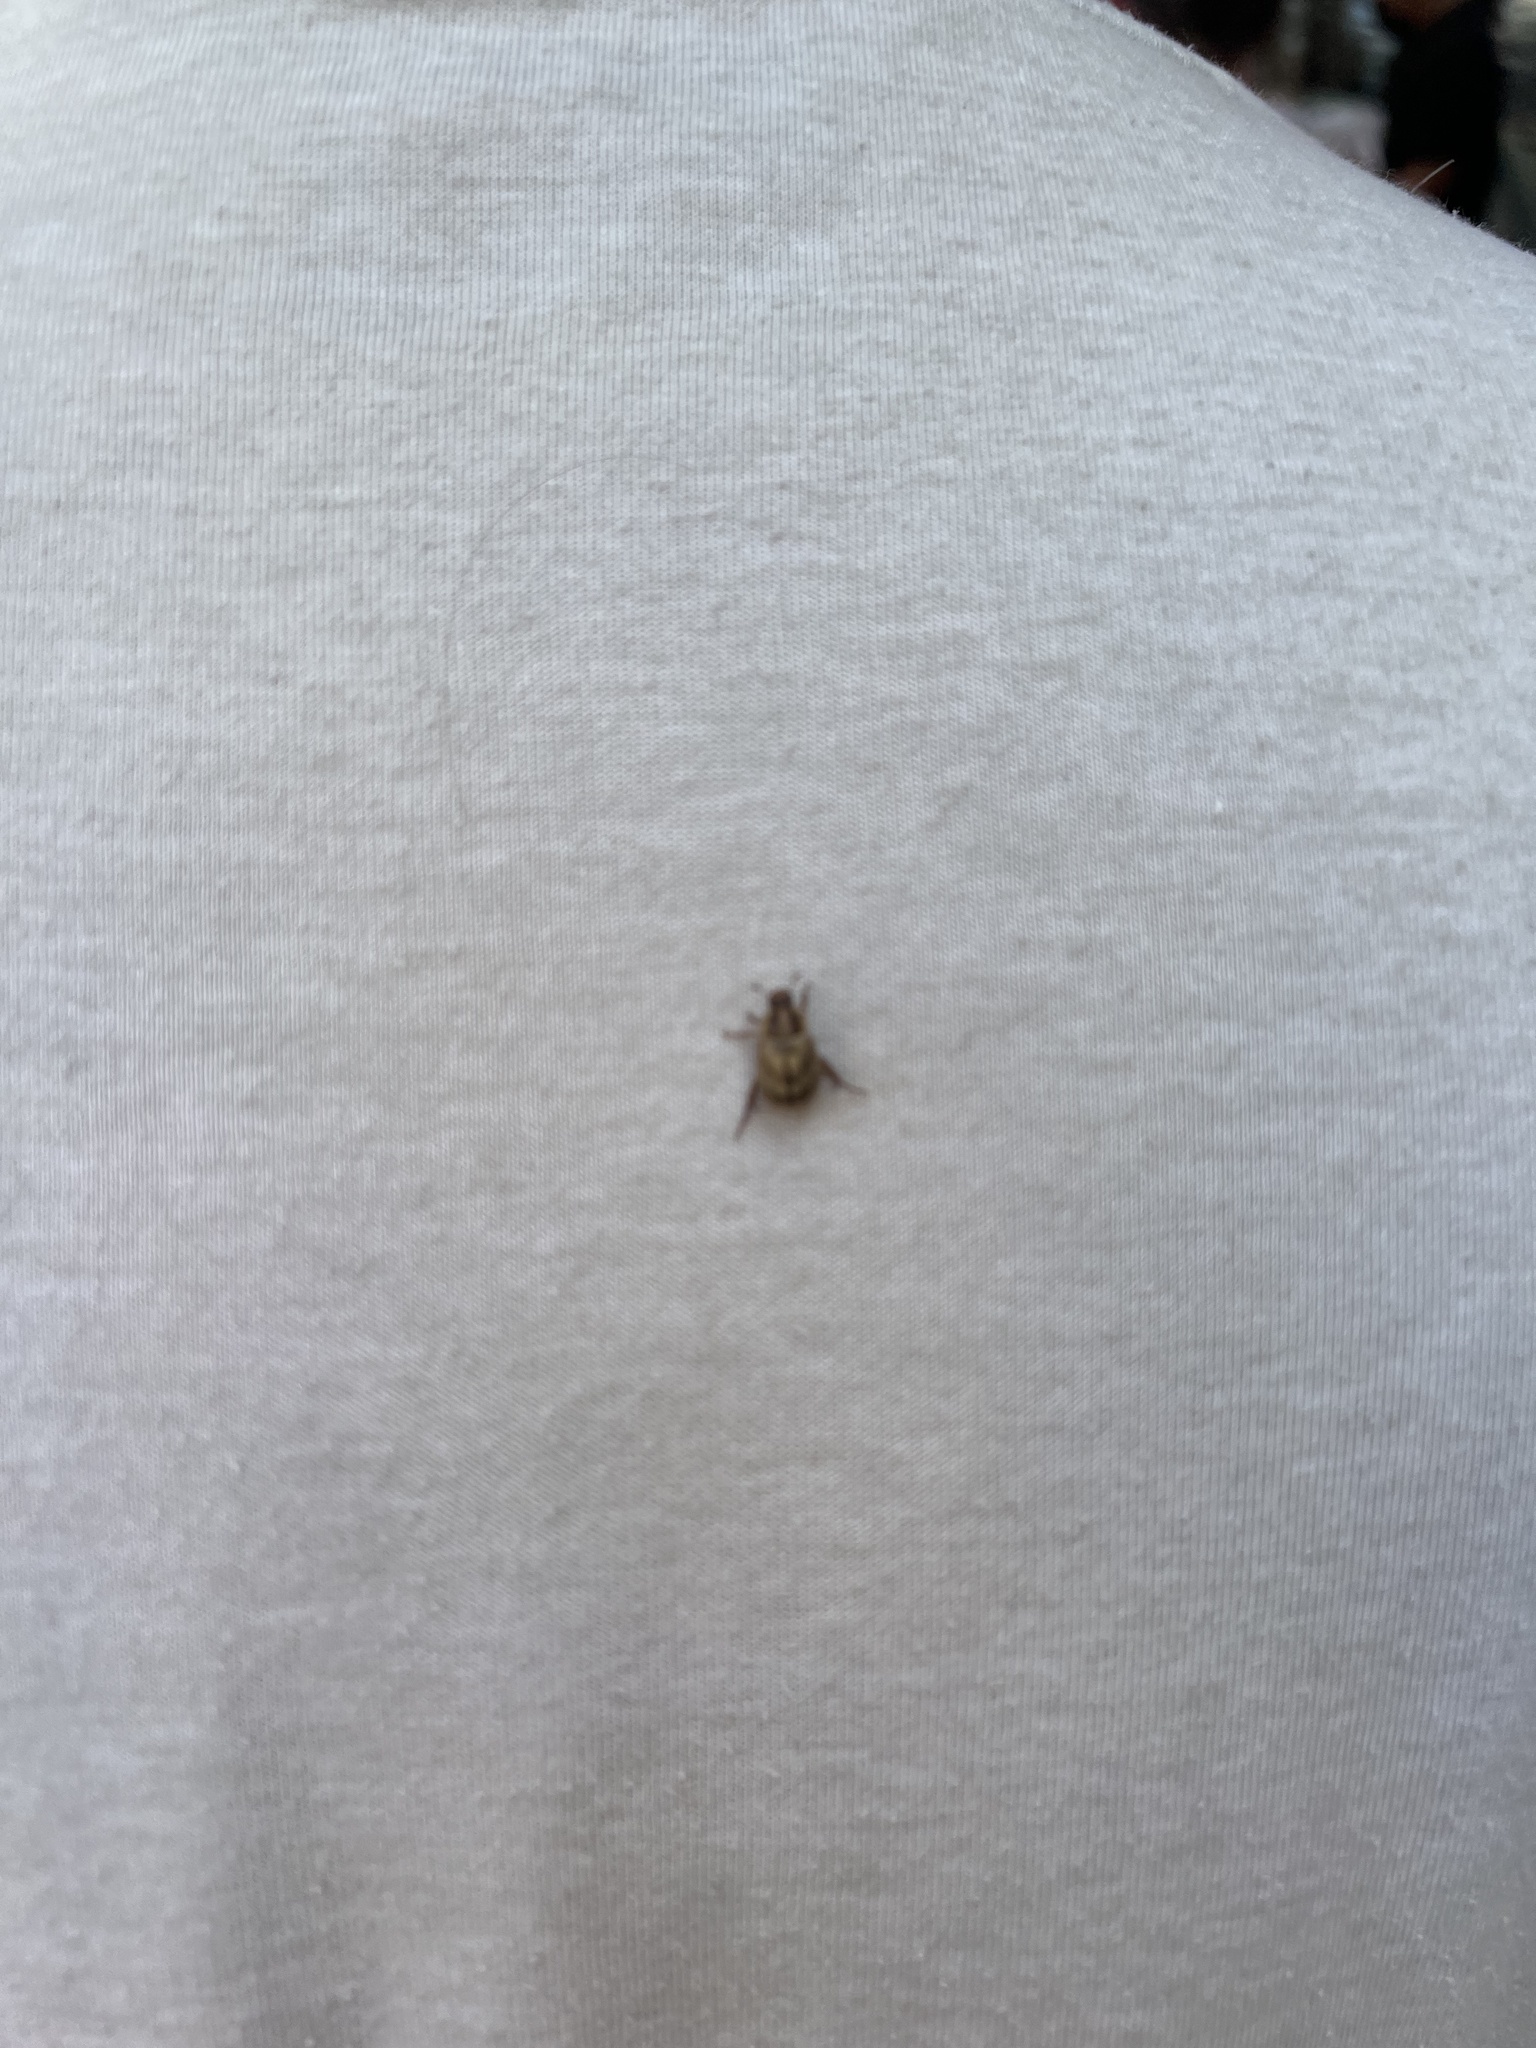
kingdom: Animalia
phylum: Arthropoda
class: Insecta
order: Coleoptera
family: Scarabaeidae
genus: Exomala
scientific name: Exomala orientalis
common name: Oriental beetle
